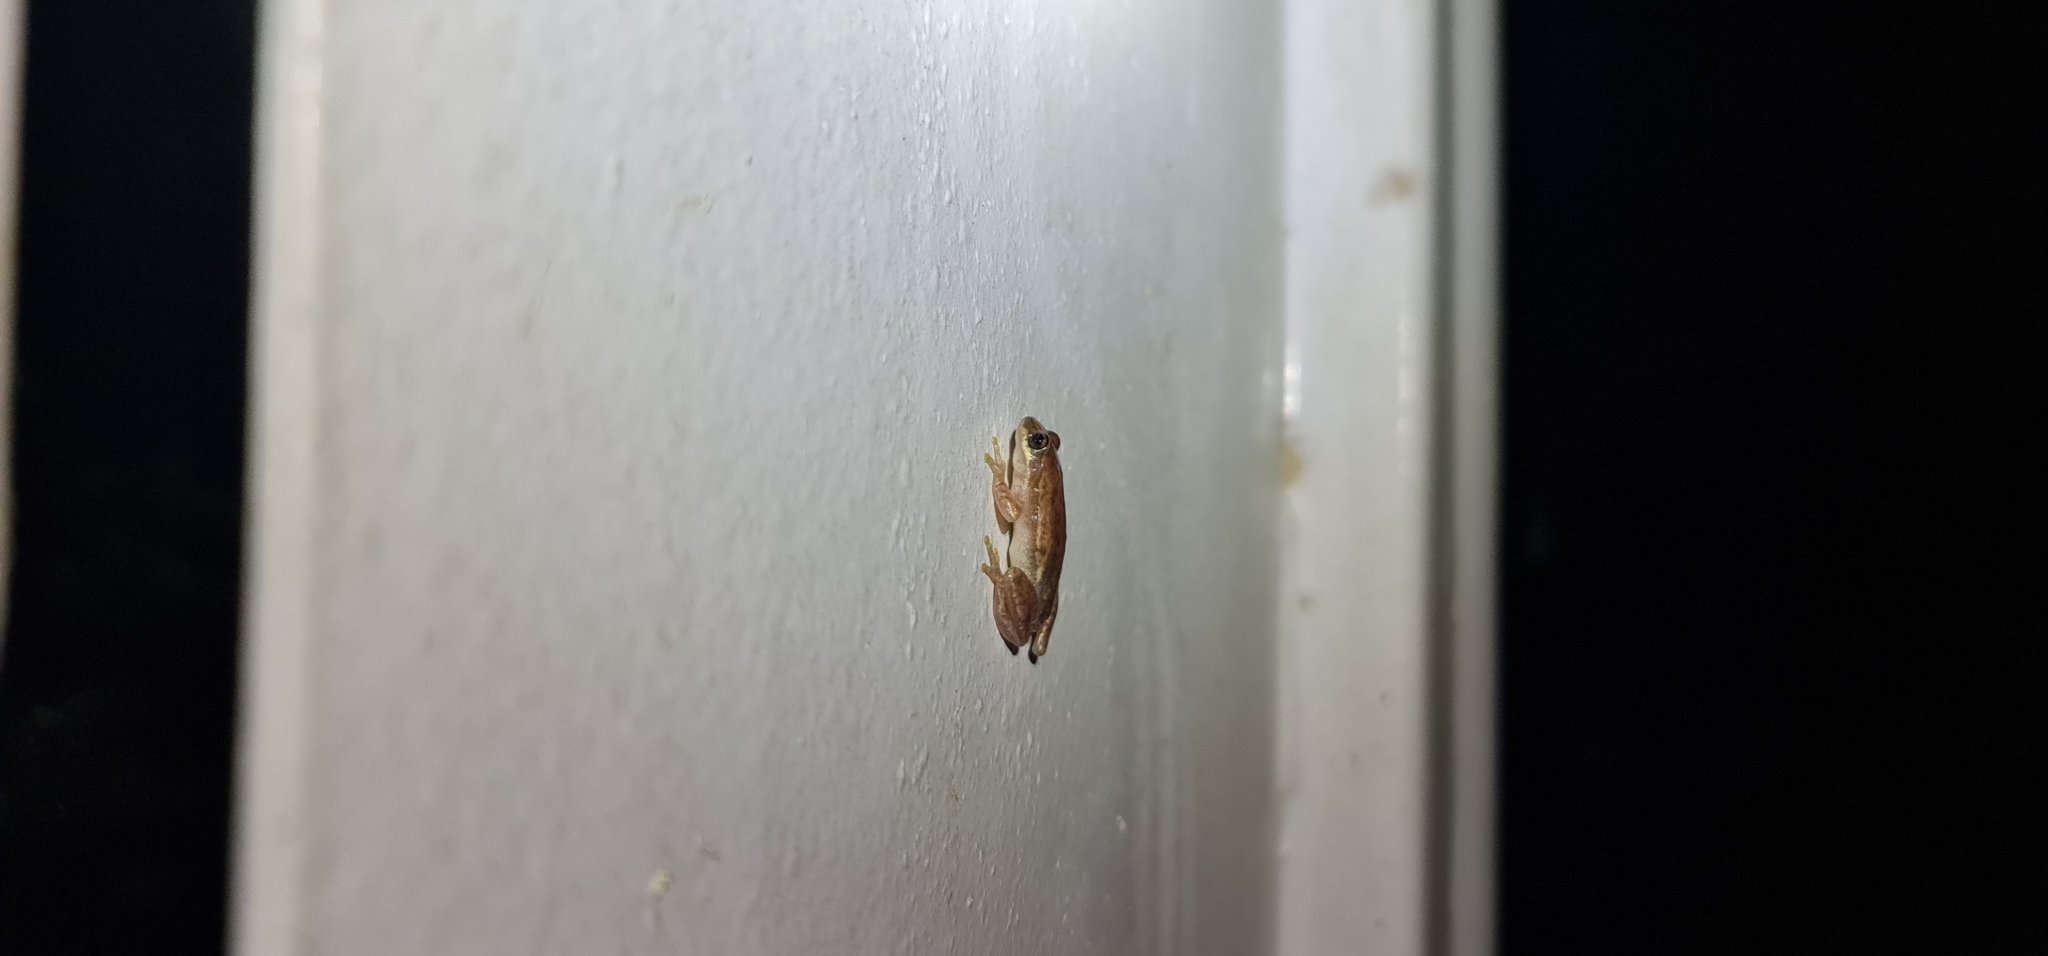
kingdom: Animalia
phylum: Chordata
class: Amphibia
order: Anura
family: Pelodryadidae
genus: Litoria
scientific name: Litoria rubella
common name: Desert tree frog
